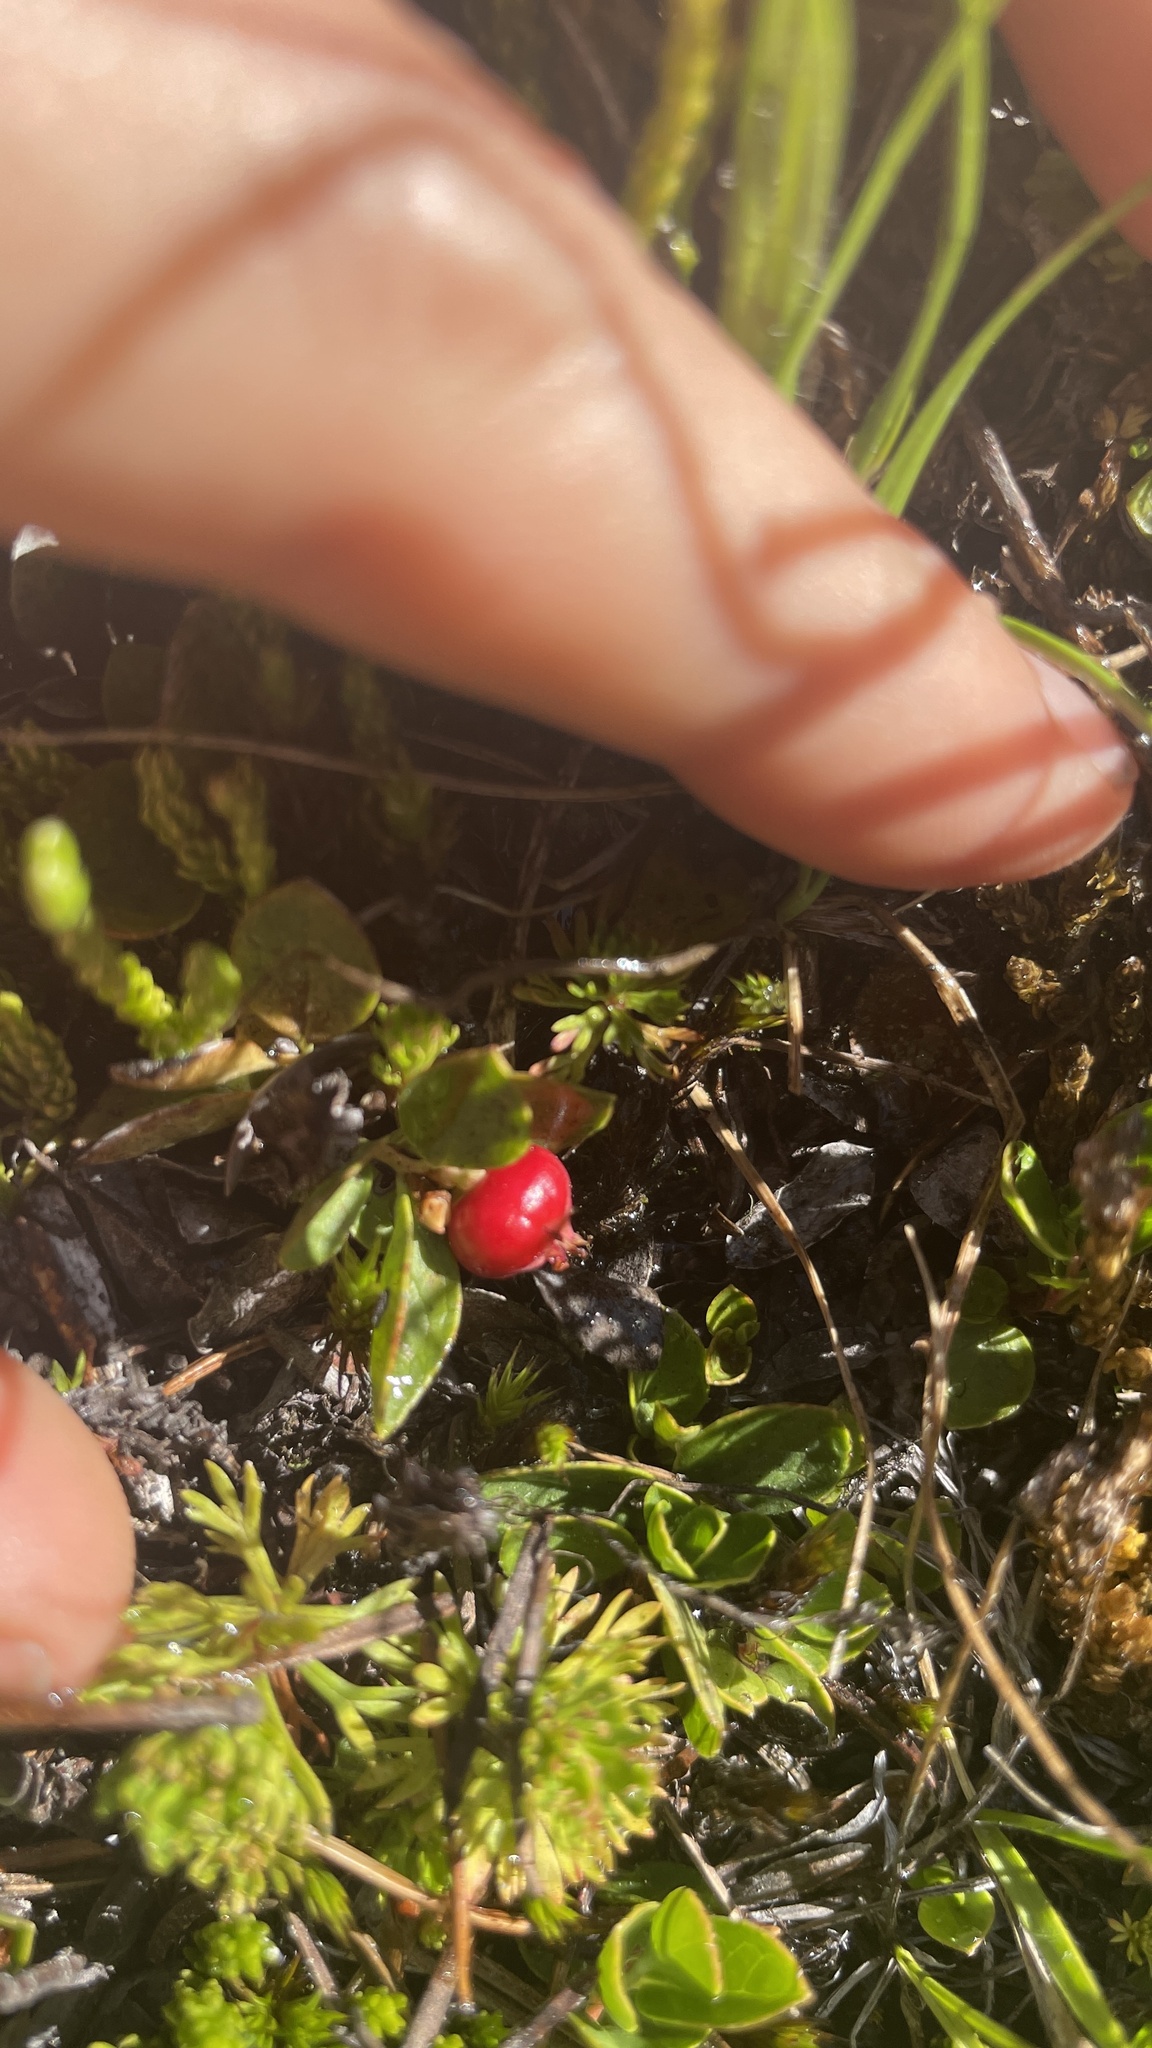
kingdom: Plantae
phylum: Tracheophyta
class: Magnoliopsida
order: Ericales
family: Ericaceae
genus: Gaultheria
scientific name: Gaultheria humifusa
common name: Alpine wintergreen
